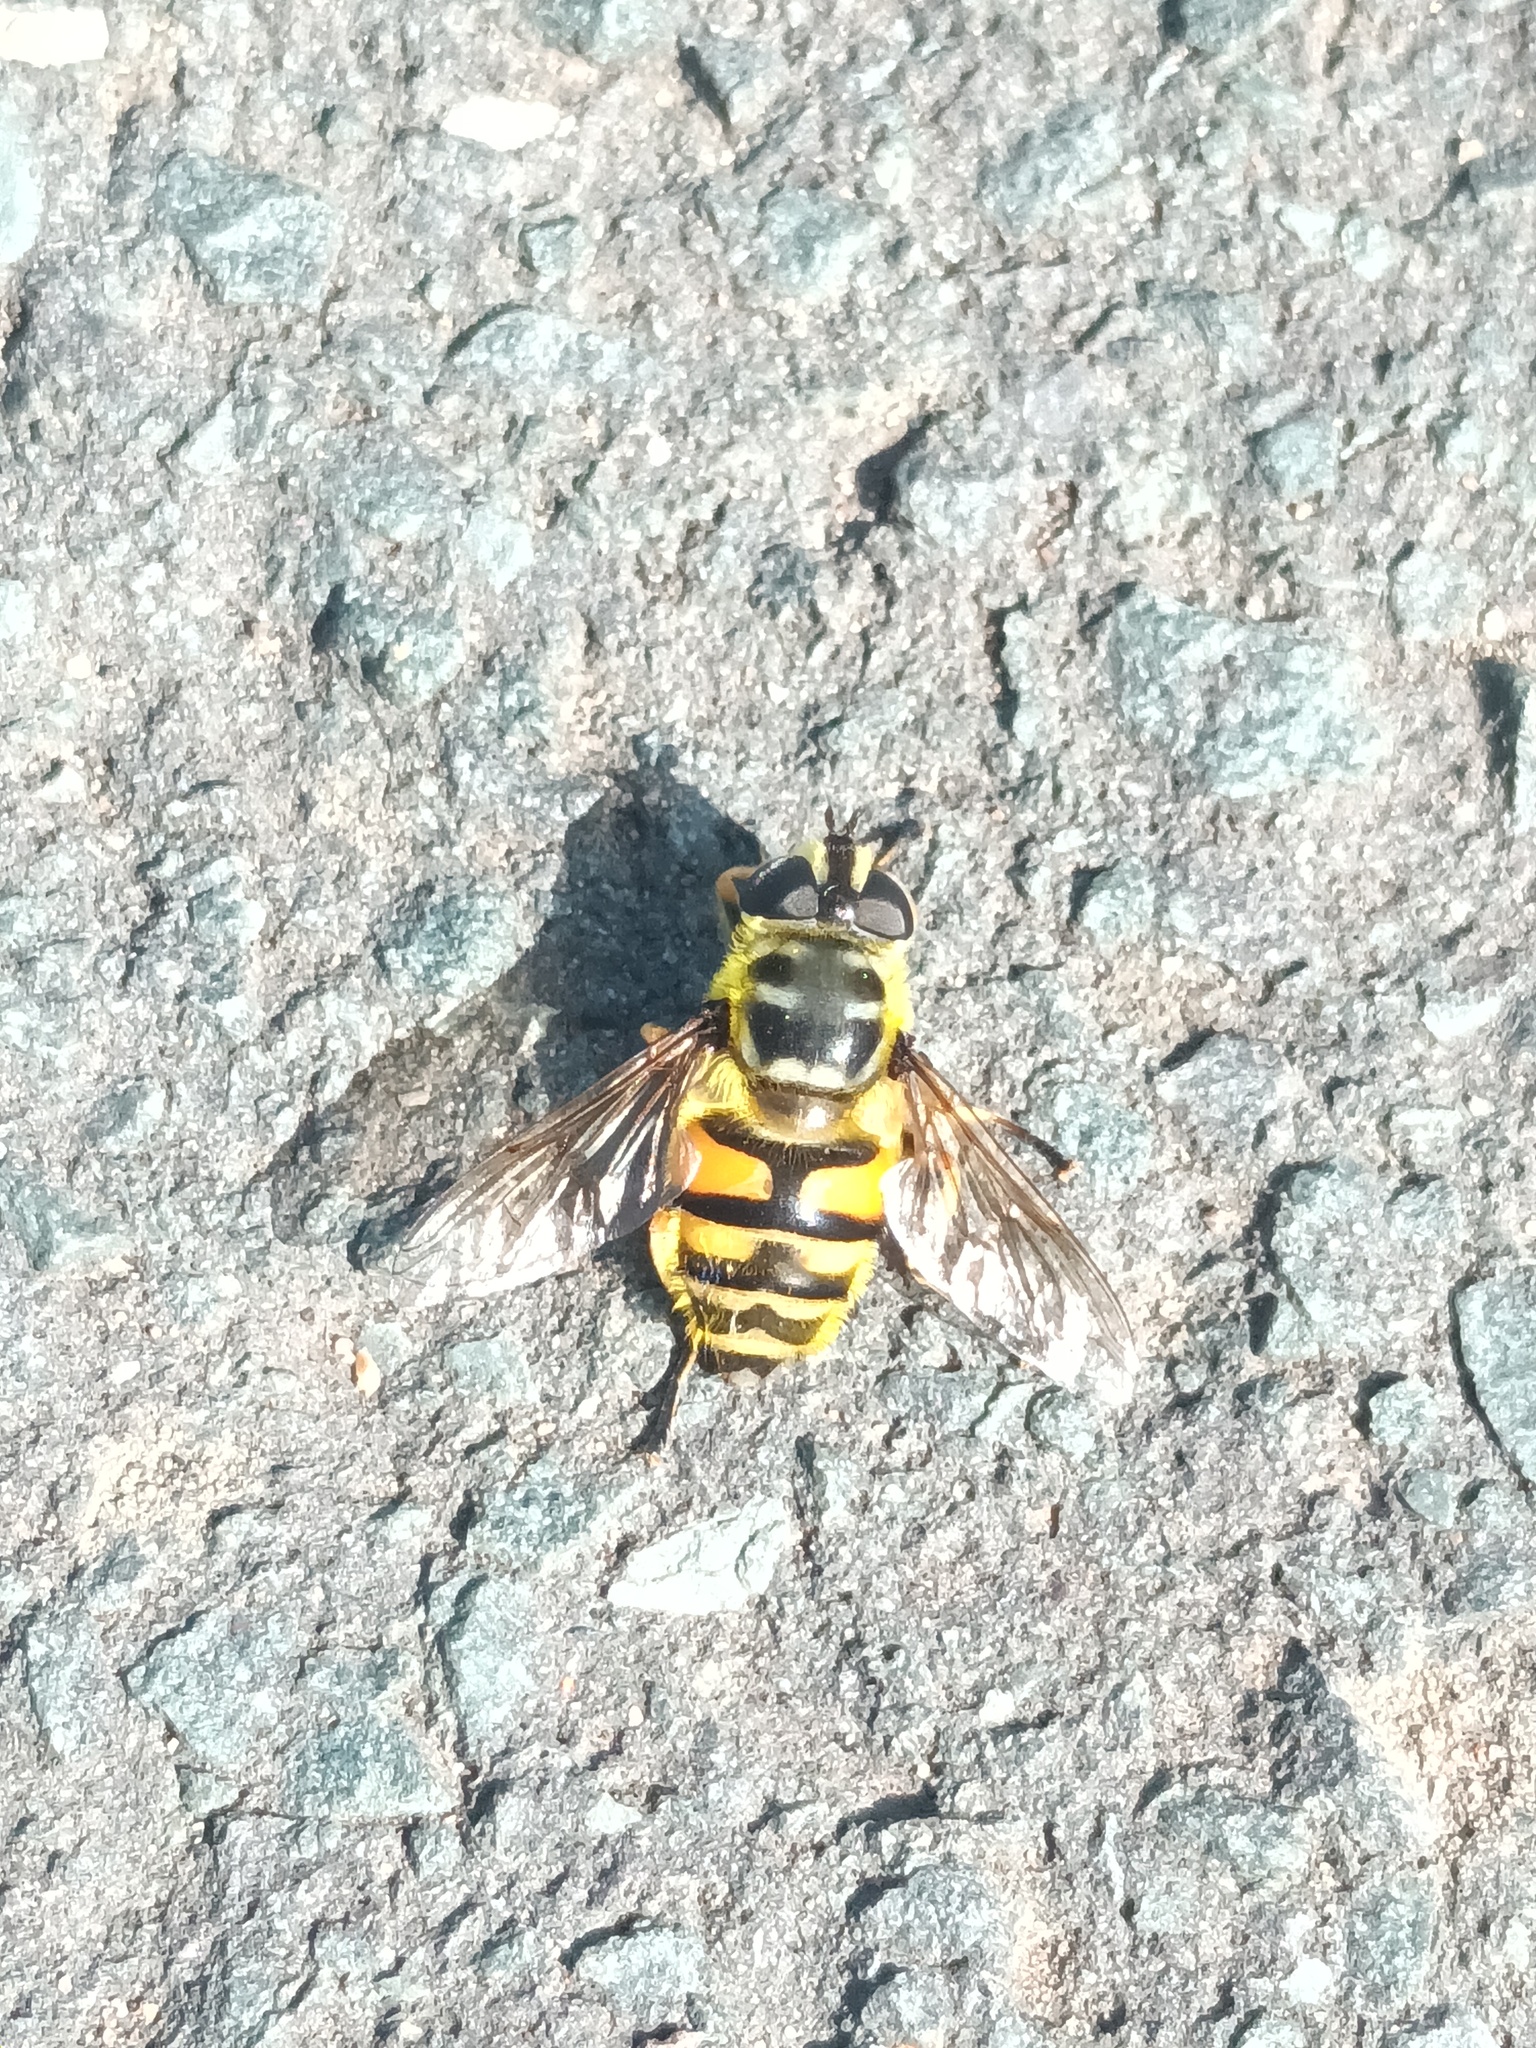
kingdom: Animalia
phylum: Arthropoda
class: Insecta
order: Diptera
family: Syrphidae
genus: Myathropa
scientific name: Myathropa florea
